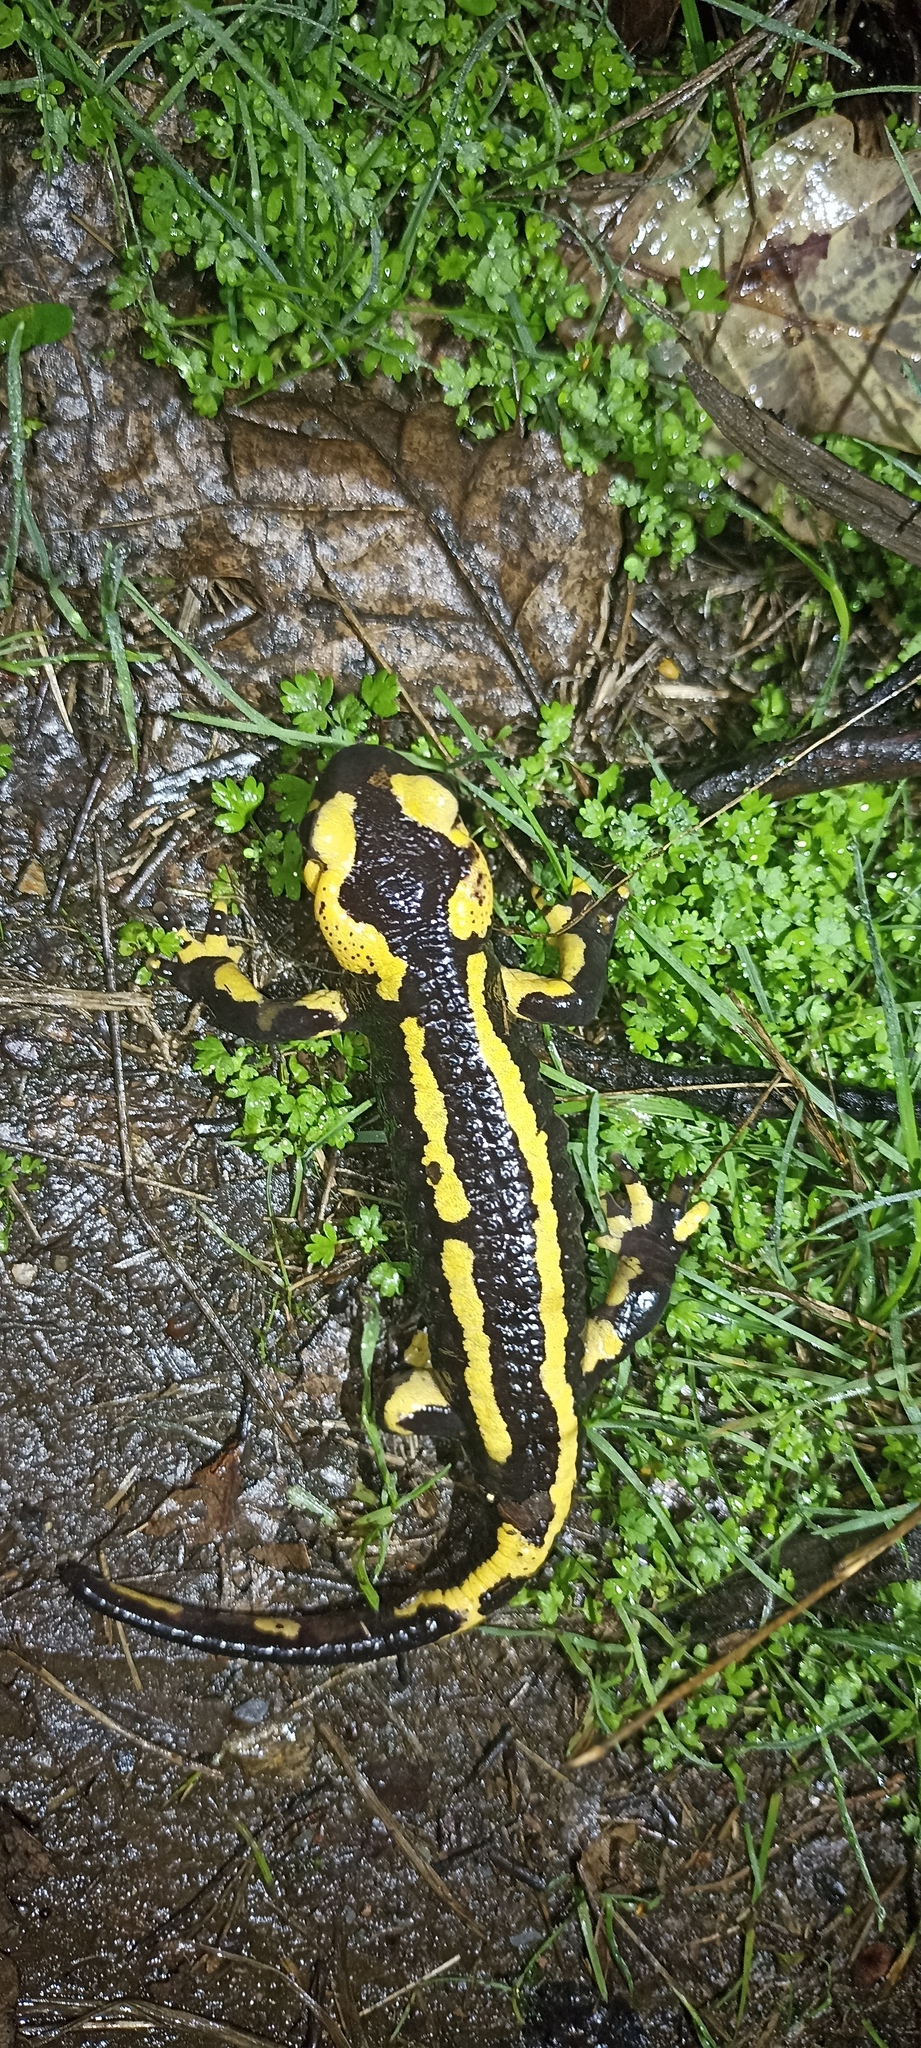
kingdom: Animalia
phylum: Chordata
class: Amphibia
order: Caudata
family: Salamandridae
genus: Salamandra
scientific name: Salamandra salamandra
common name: Fire salamander
